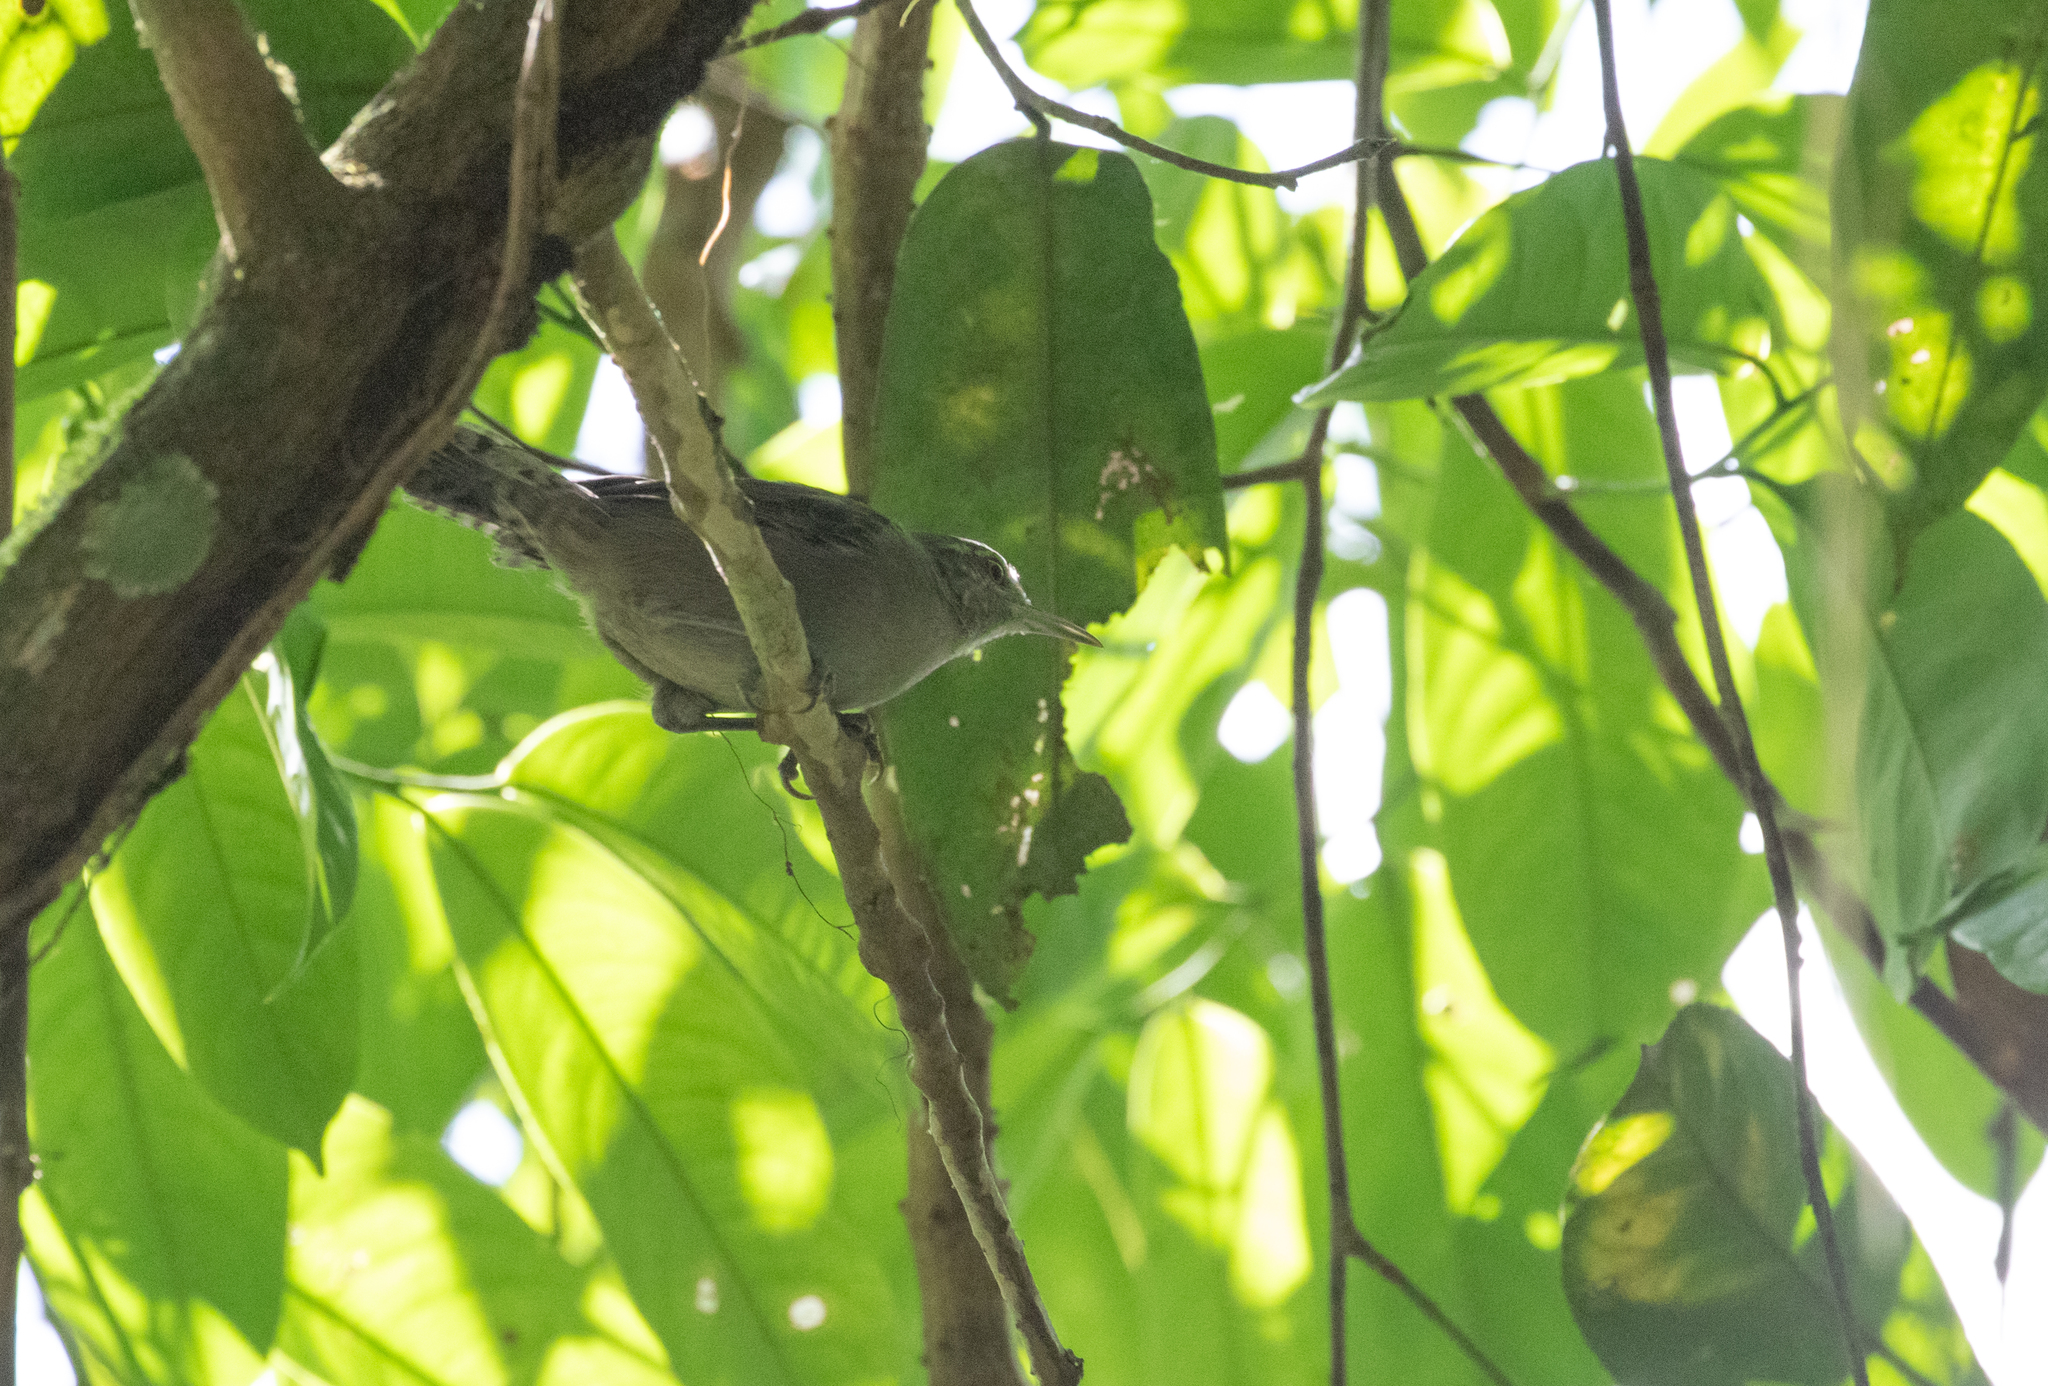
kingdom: Animalia
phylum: Chordata
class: Aves
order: Passeriformes
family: Troglodytidae
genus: Cantorchilus
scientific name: Cantorchilus griseus
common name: Gray wren
